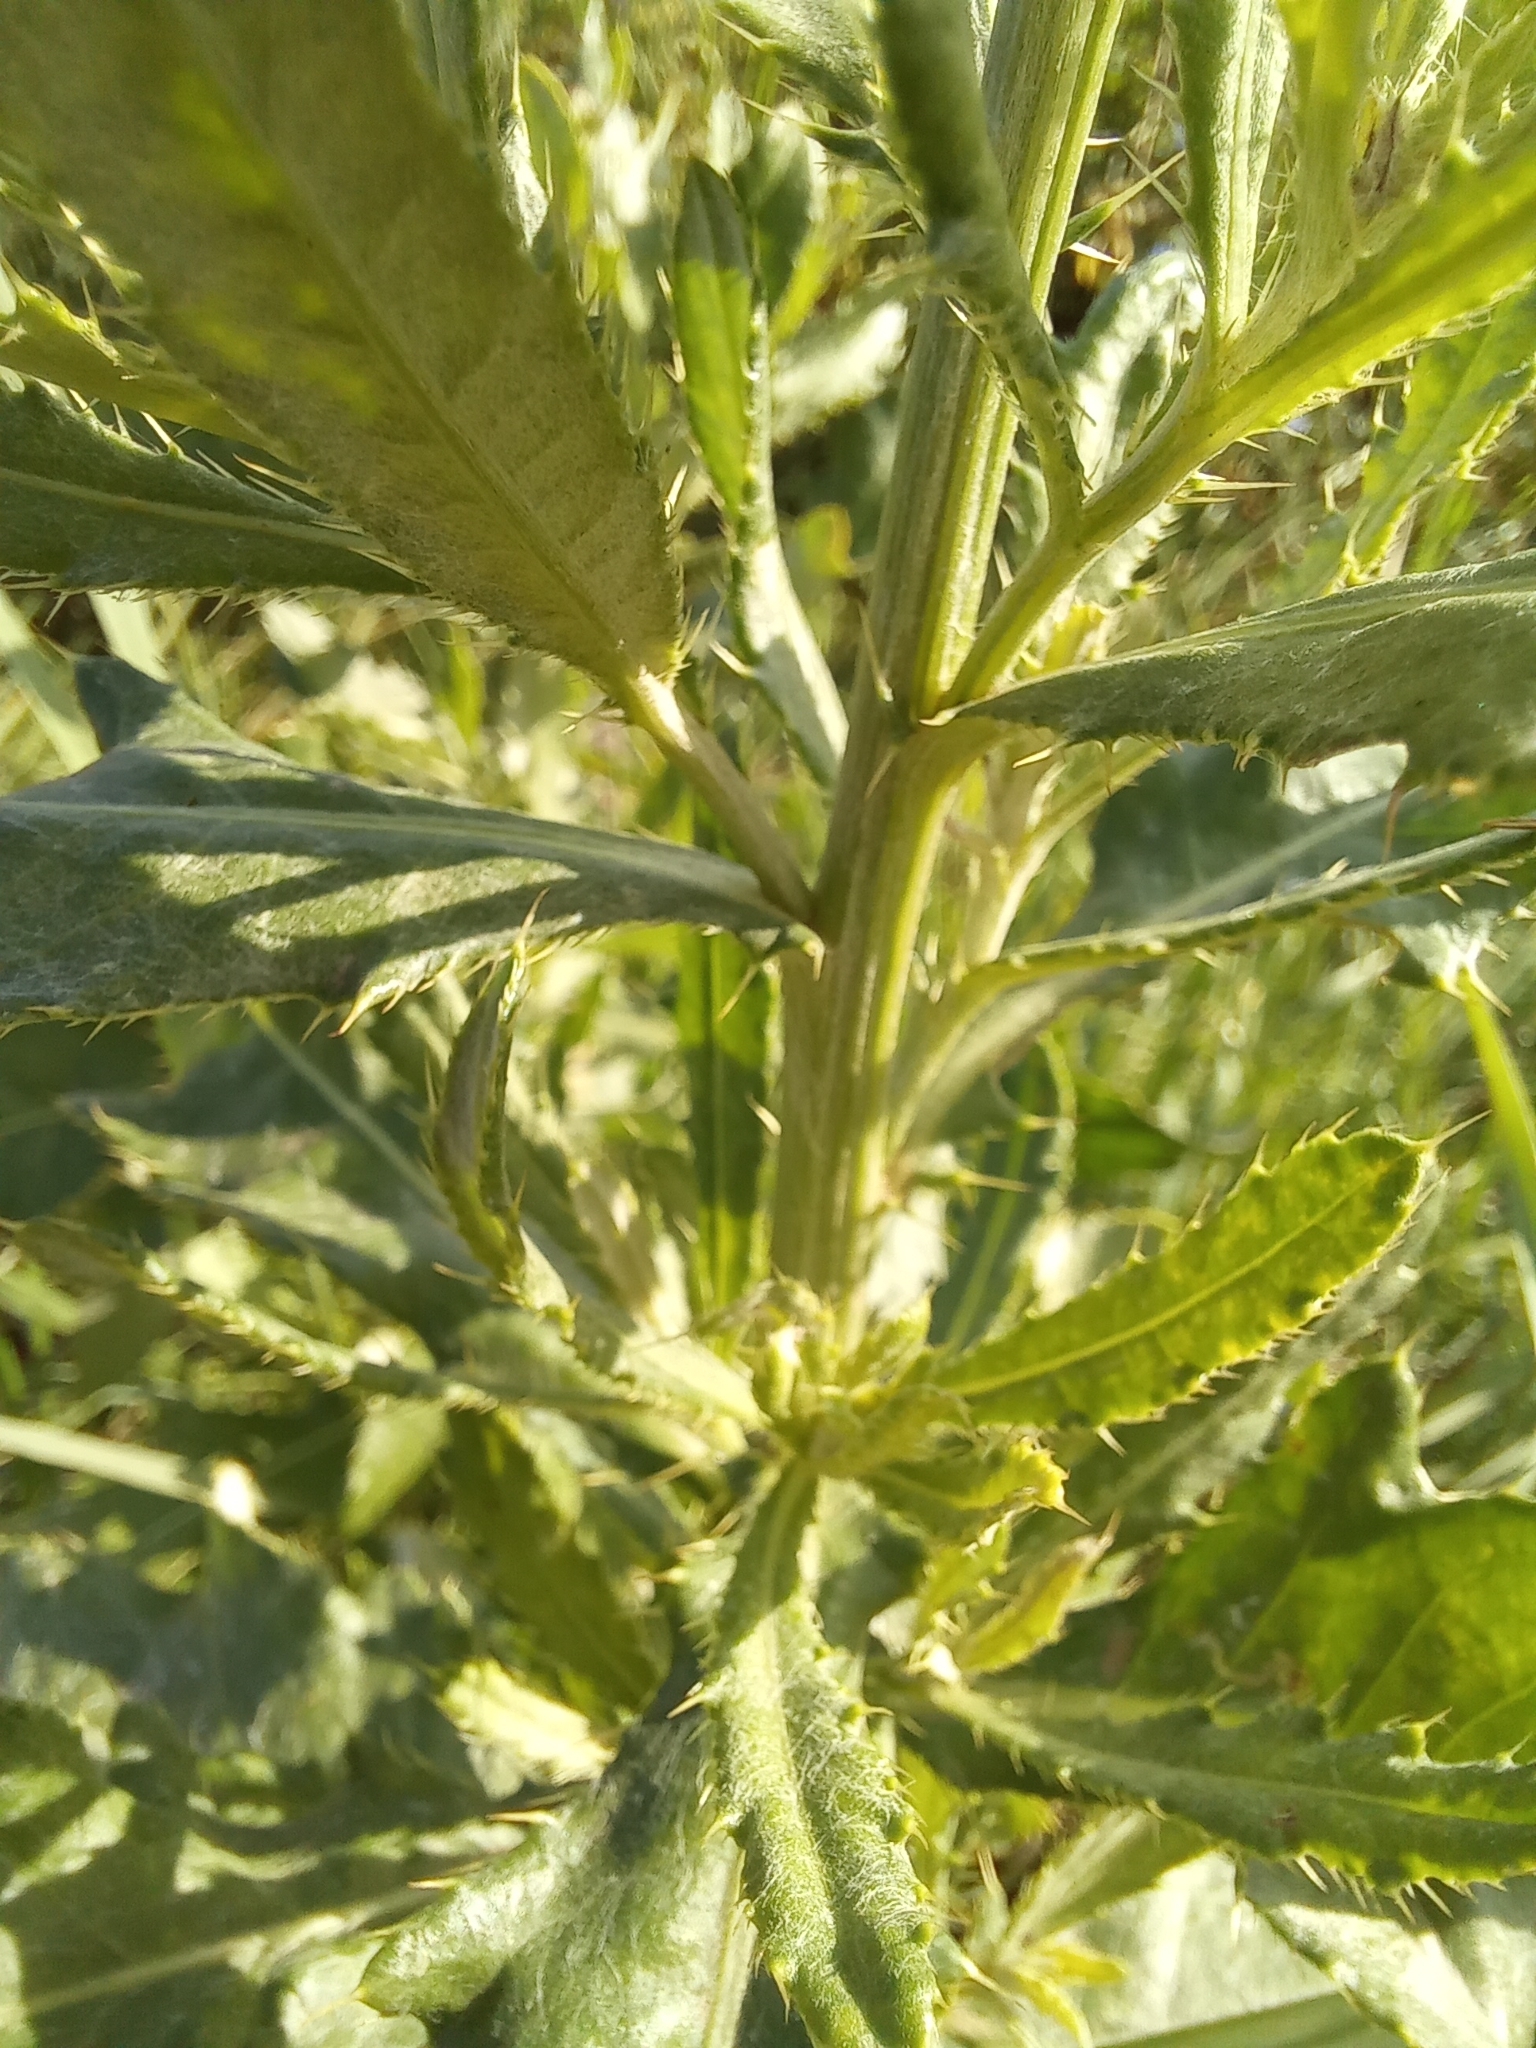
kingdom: Plantae
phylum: Tracheophyta
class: Magnoliopsida
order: Asterales
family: Asteraceae
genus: Cirsium
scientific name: Cirsium arvense
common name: Creeping thistle
